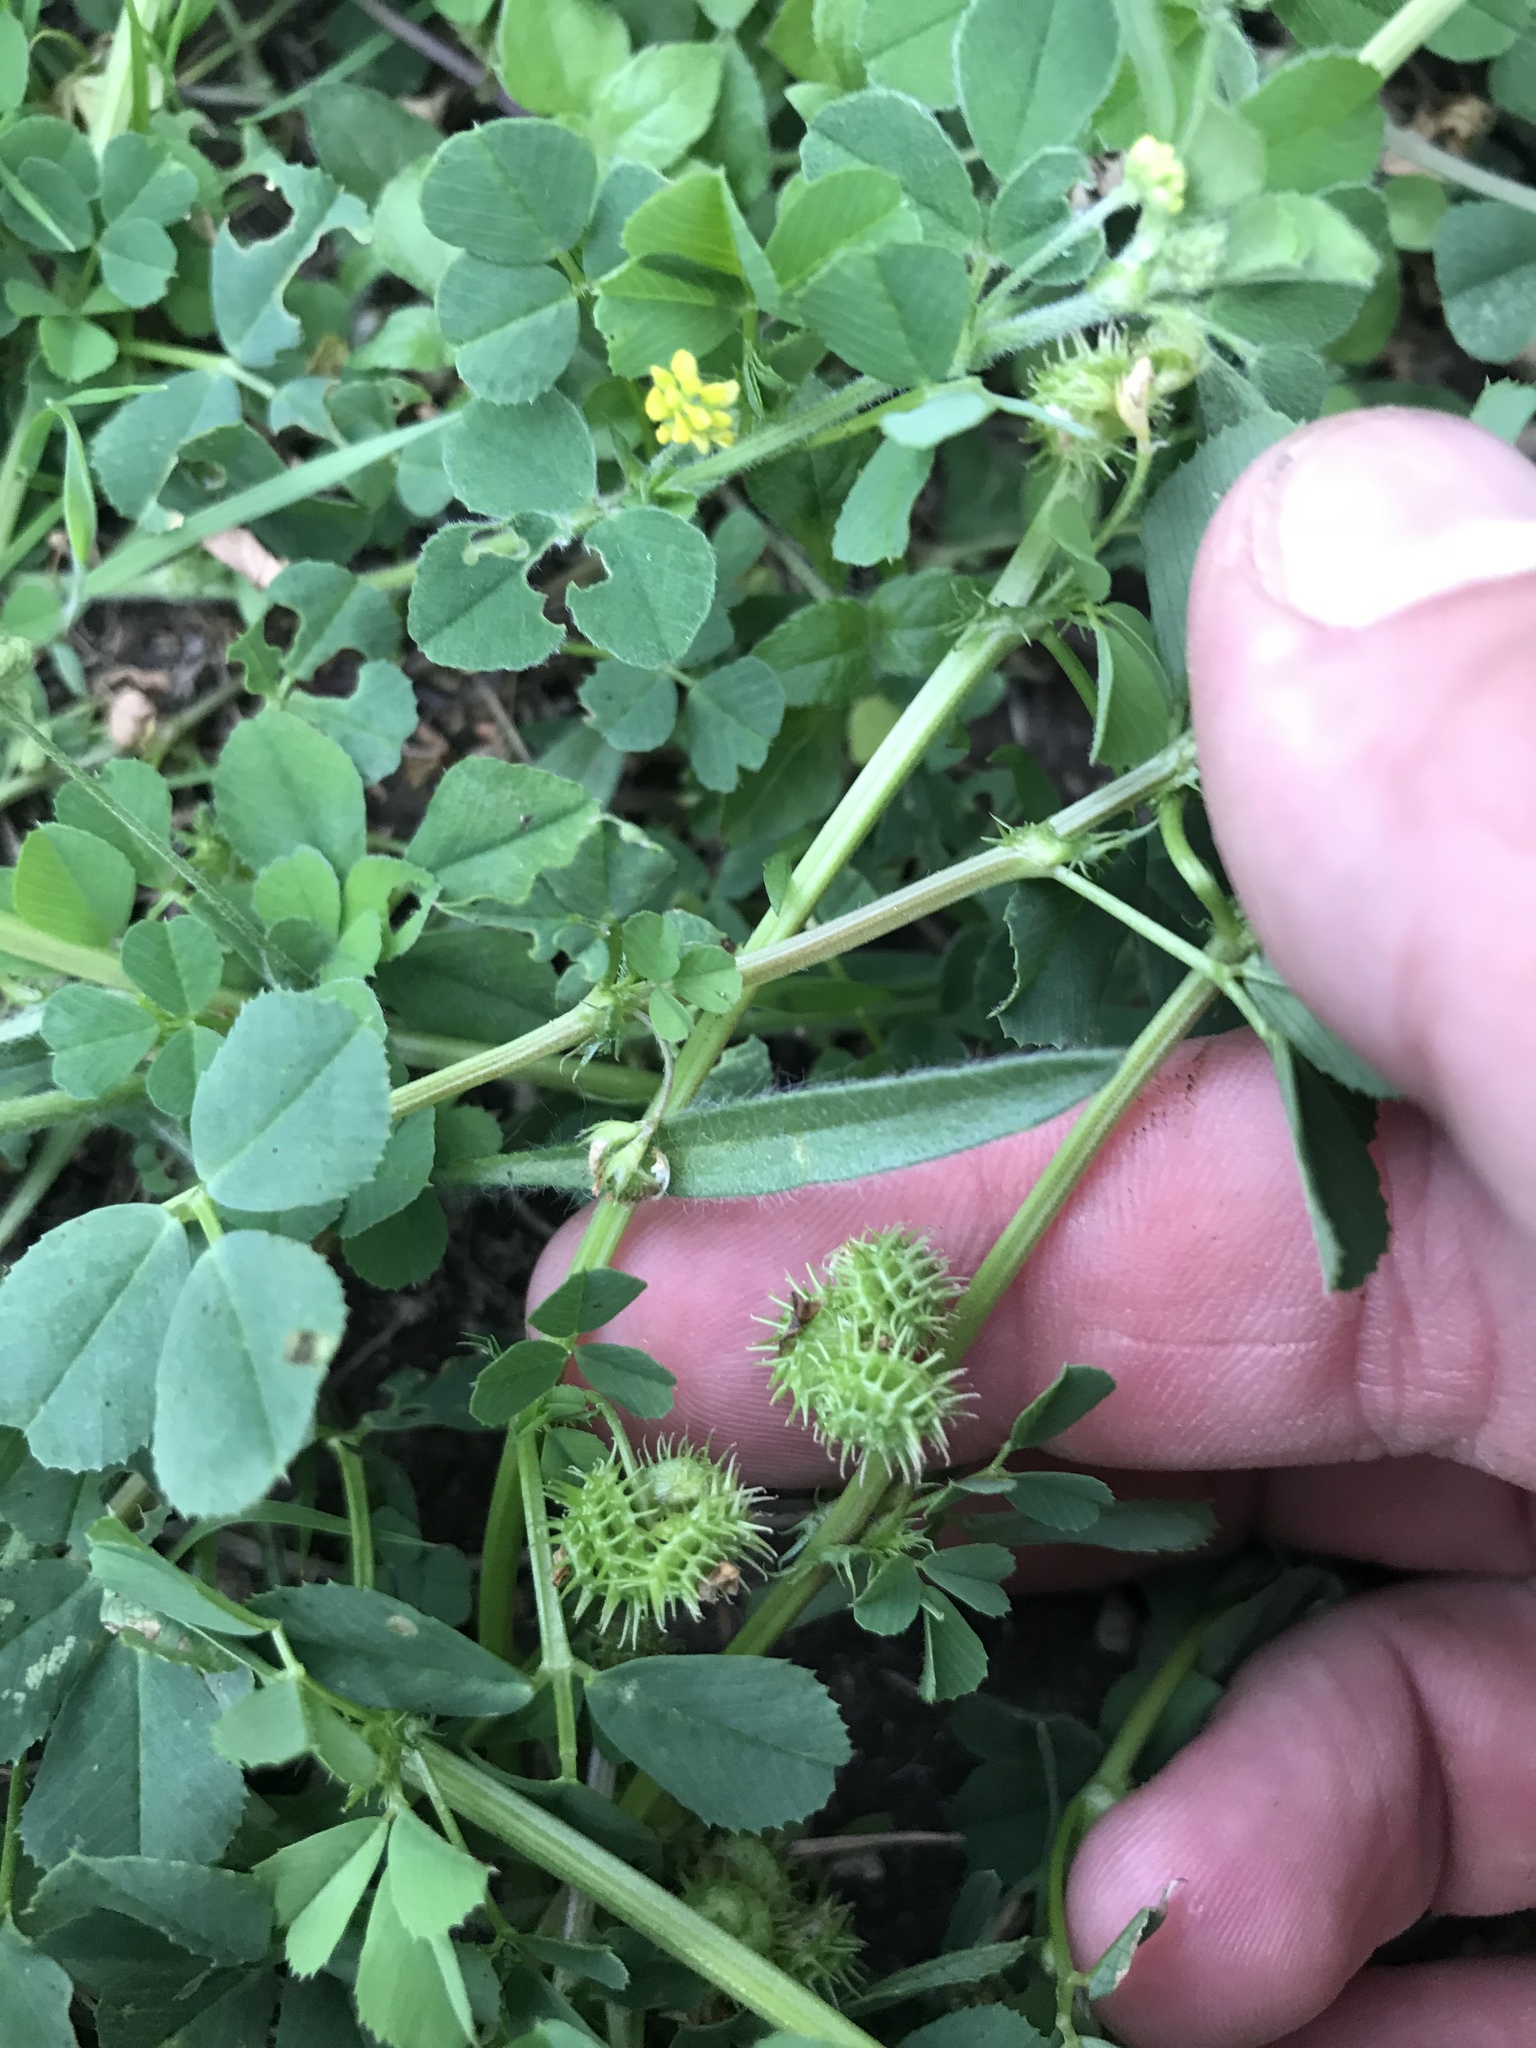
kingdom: Plantae
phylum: Tracheophyta
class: Magnoliopsida
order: Fabales
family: Fabaceae
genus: Medicago
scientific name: Medicago lupulina
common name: Black medick
